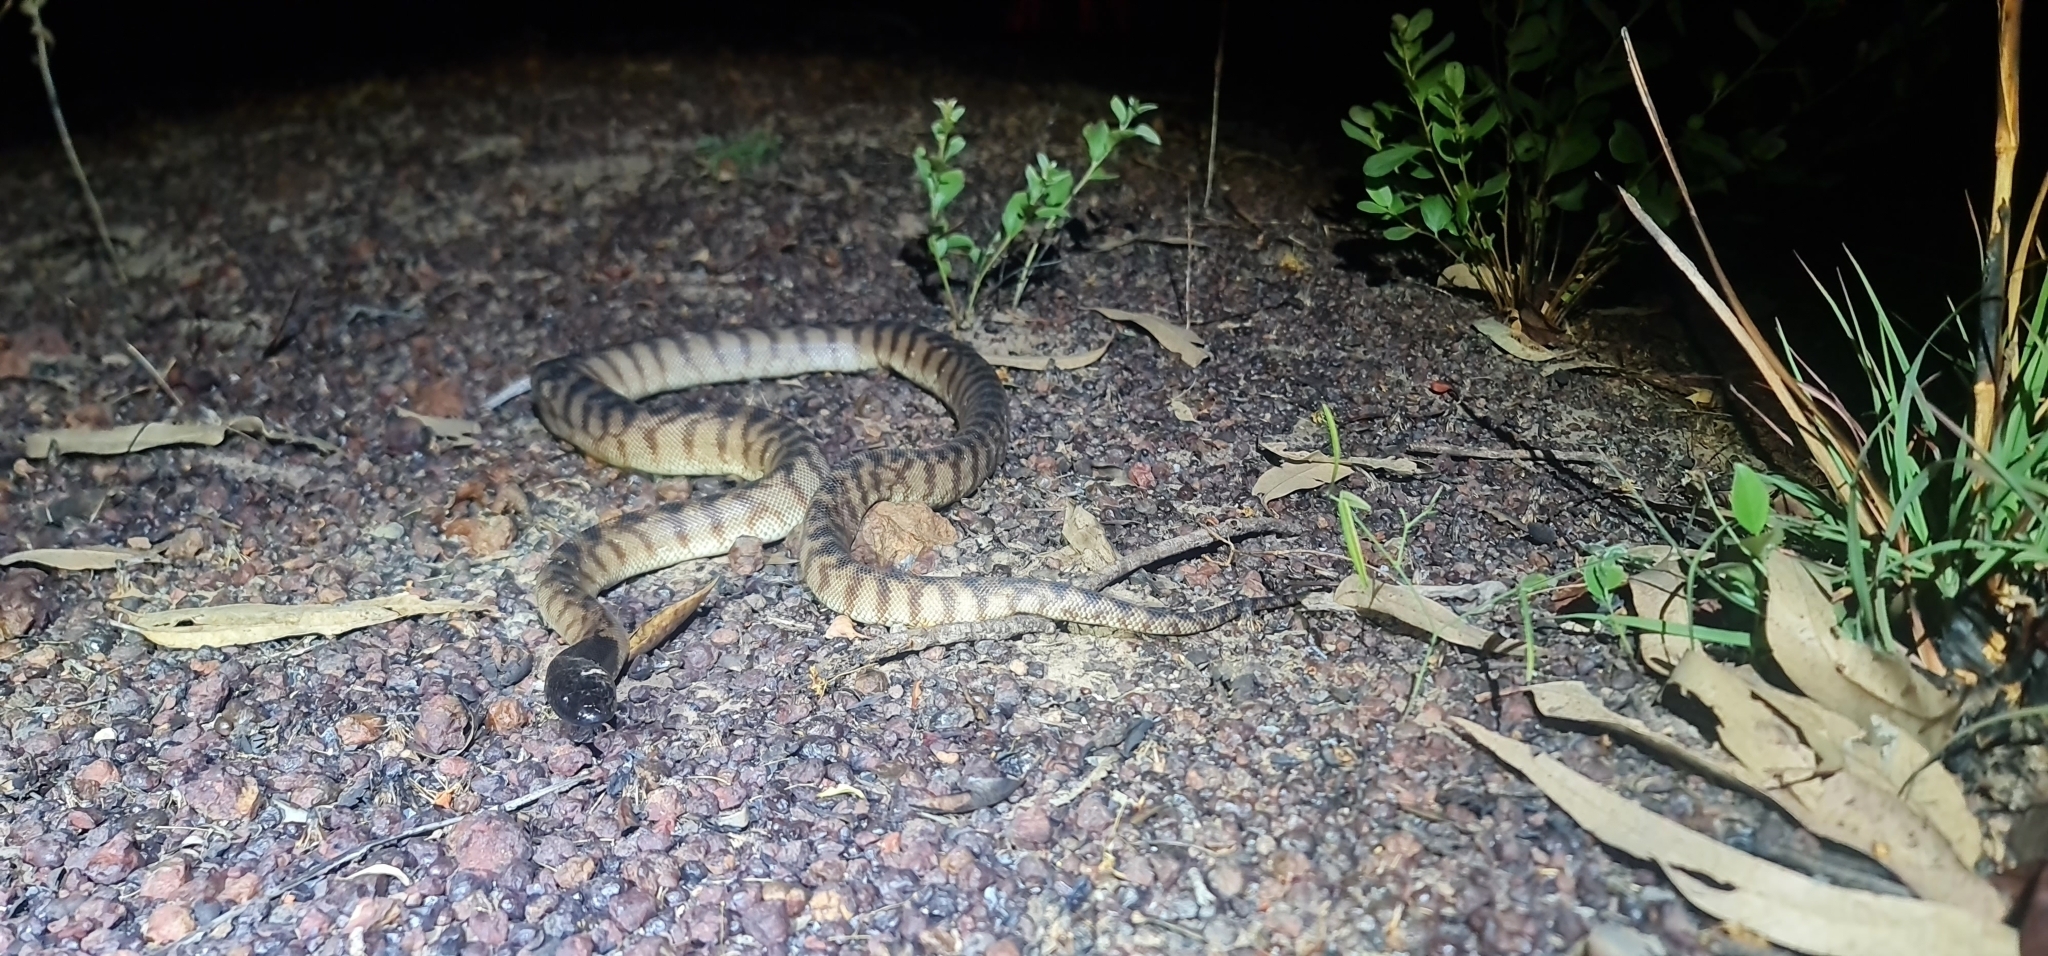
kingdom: Animalia
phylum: Chordata
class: Squamata
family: Pythonidae
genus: Aspidites
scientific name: Aspidites melanocephalus
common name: Black-headed python
